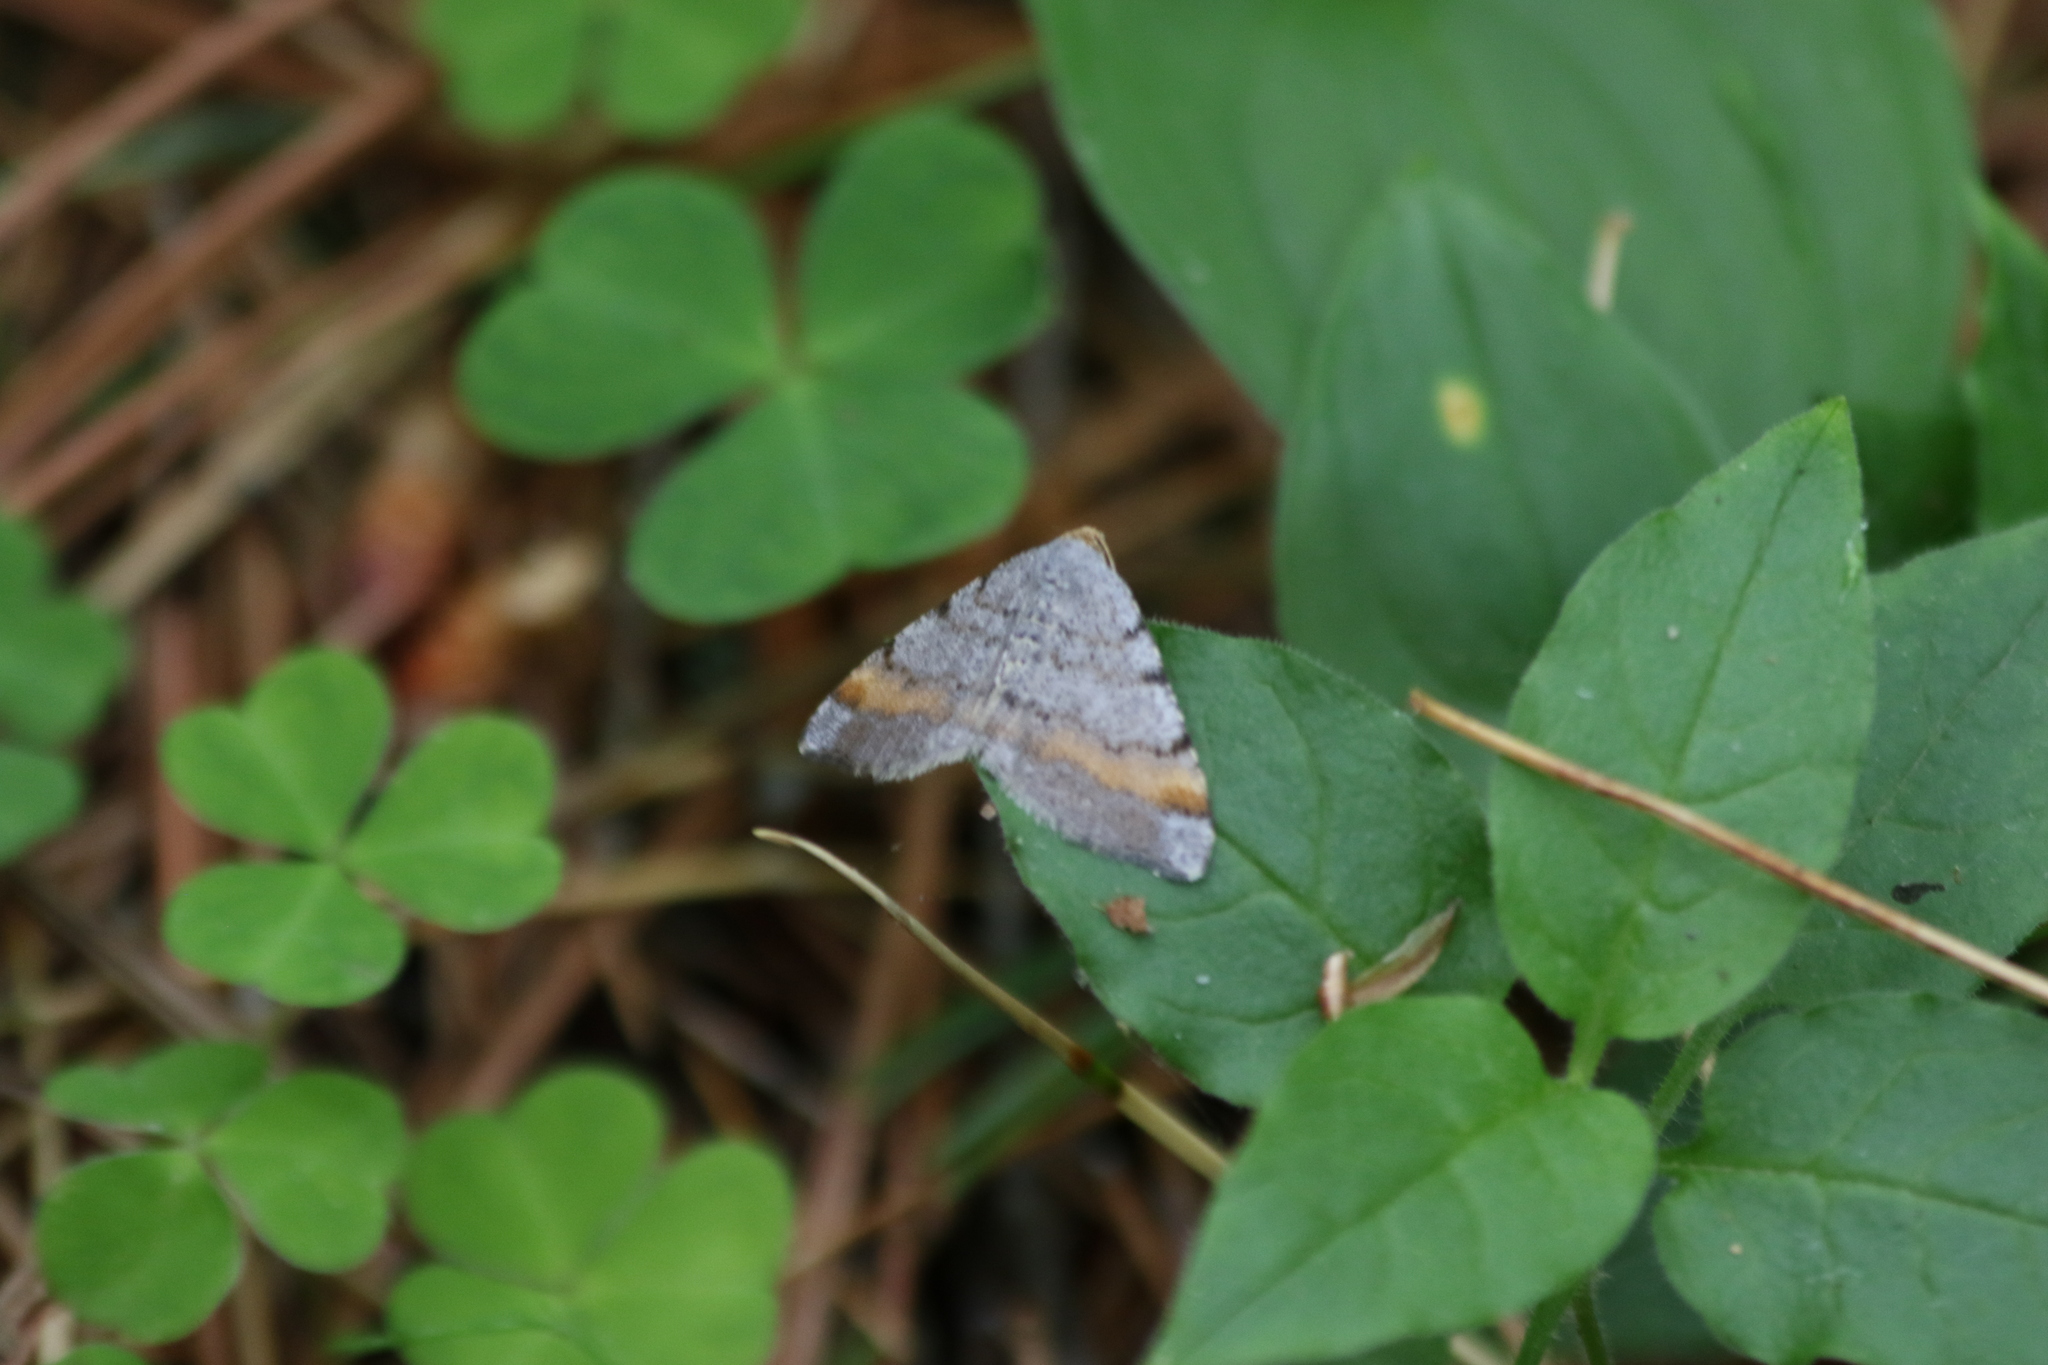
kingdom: Animalia
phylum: Arthropoda
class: Insecta
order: Lepidoptera
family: Geometridae
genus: Macaria
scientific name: Macaria liturata
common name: Tawny-barred angle
